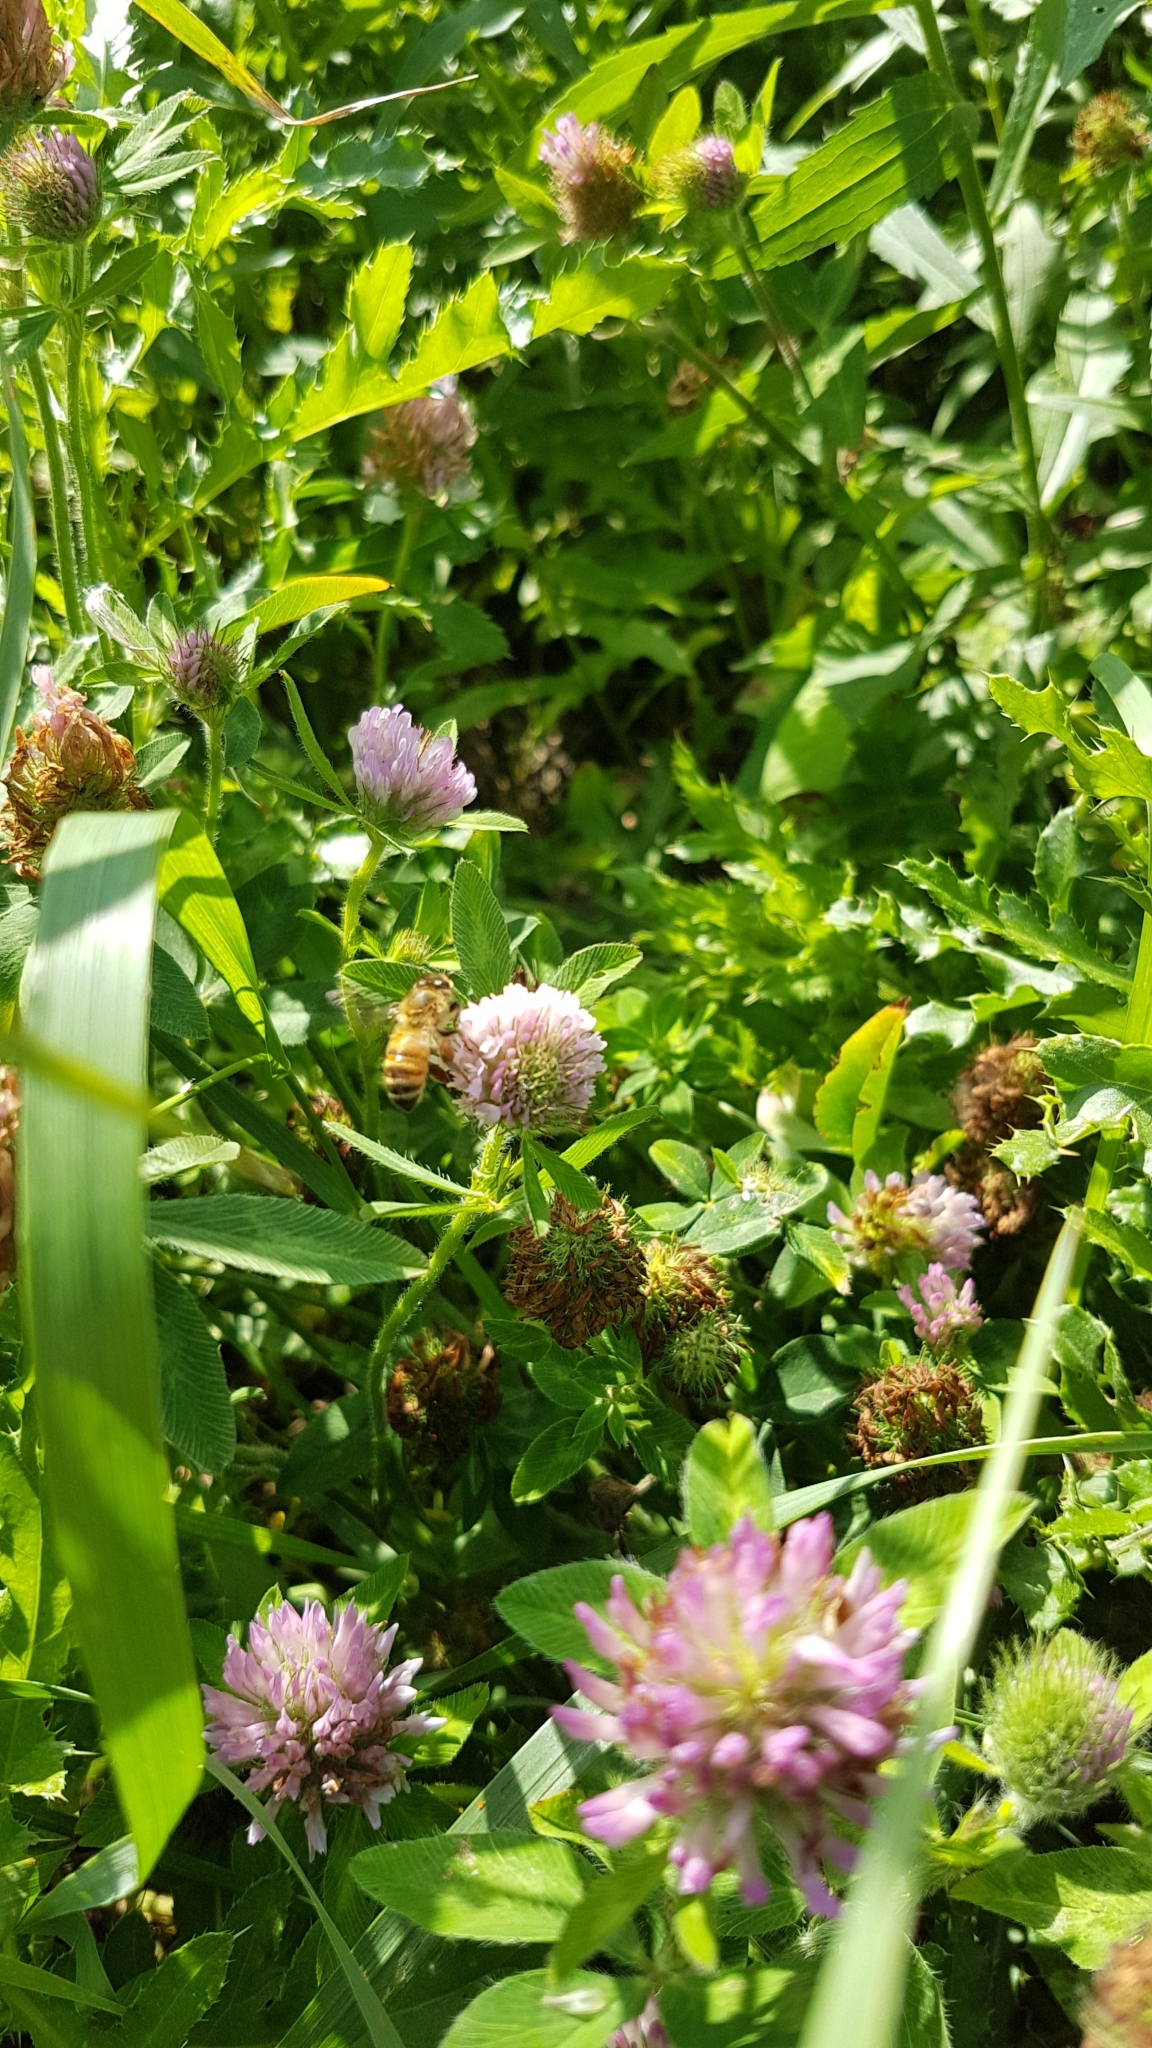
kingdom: Animalia
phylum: Arthropoda
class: Insecta
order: Hymenoptera
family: Apidae
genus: Apis
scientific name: Apis mellifera
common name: Honey bee
